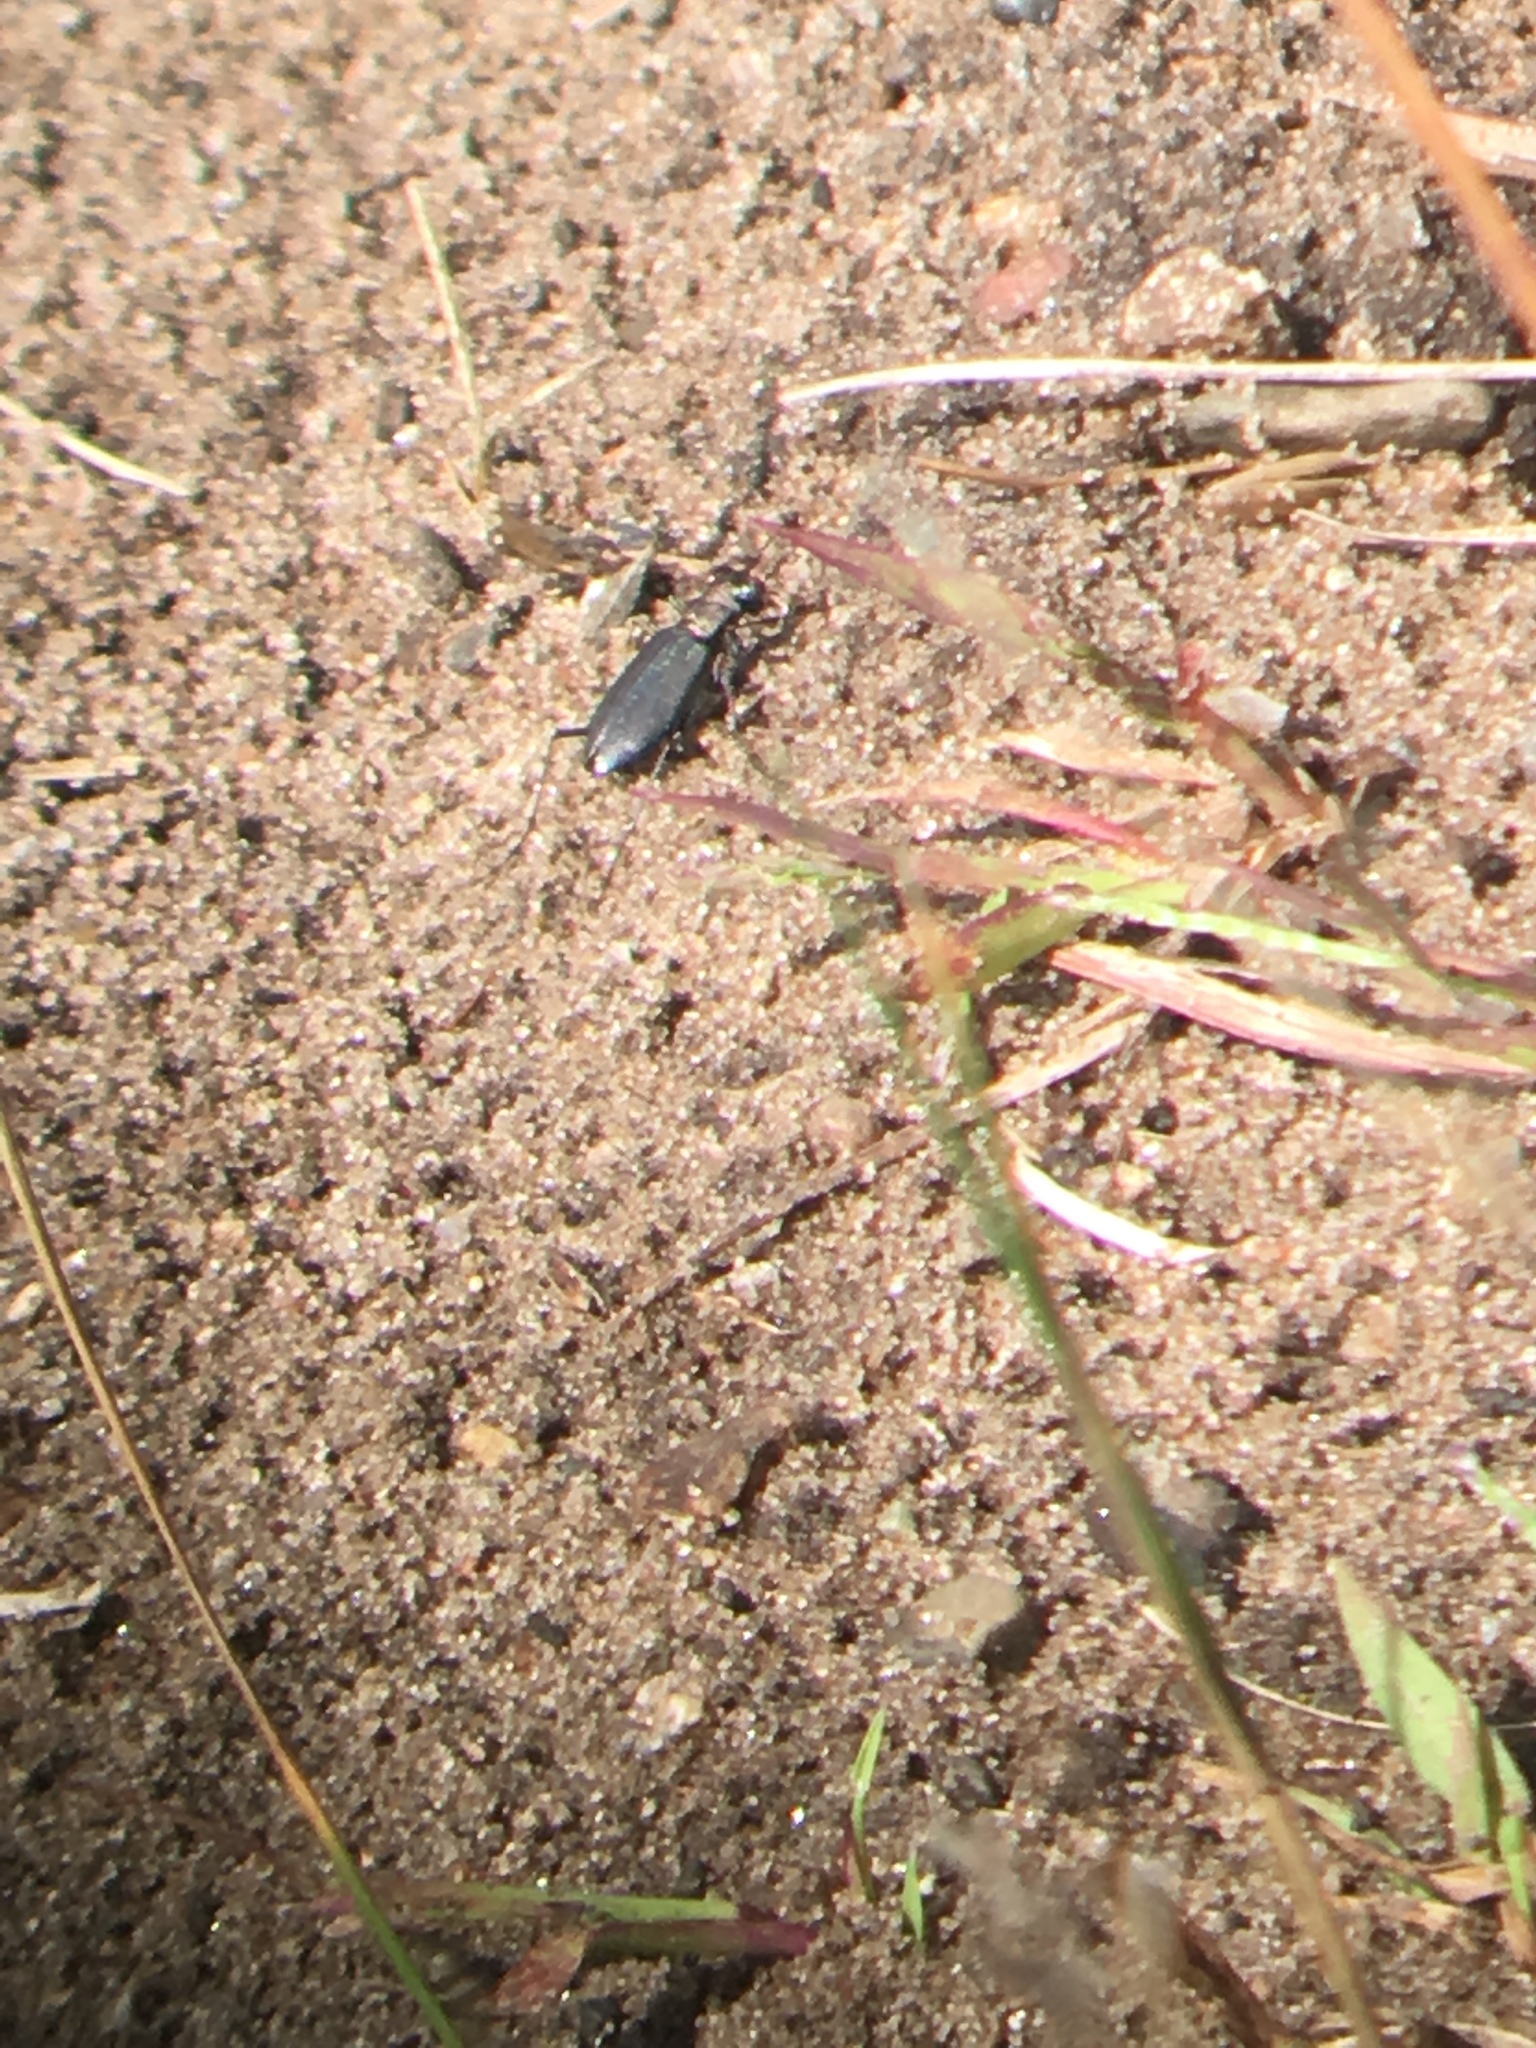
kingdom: Animalia
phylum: Arthropoda
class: Insecta
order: Coleoptera
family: Carabidae
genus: Cicindela
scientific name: Cicindela punctulata
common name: Punctured tiger beetle
